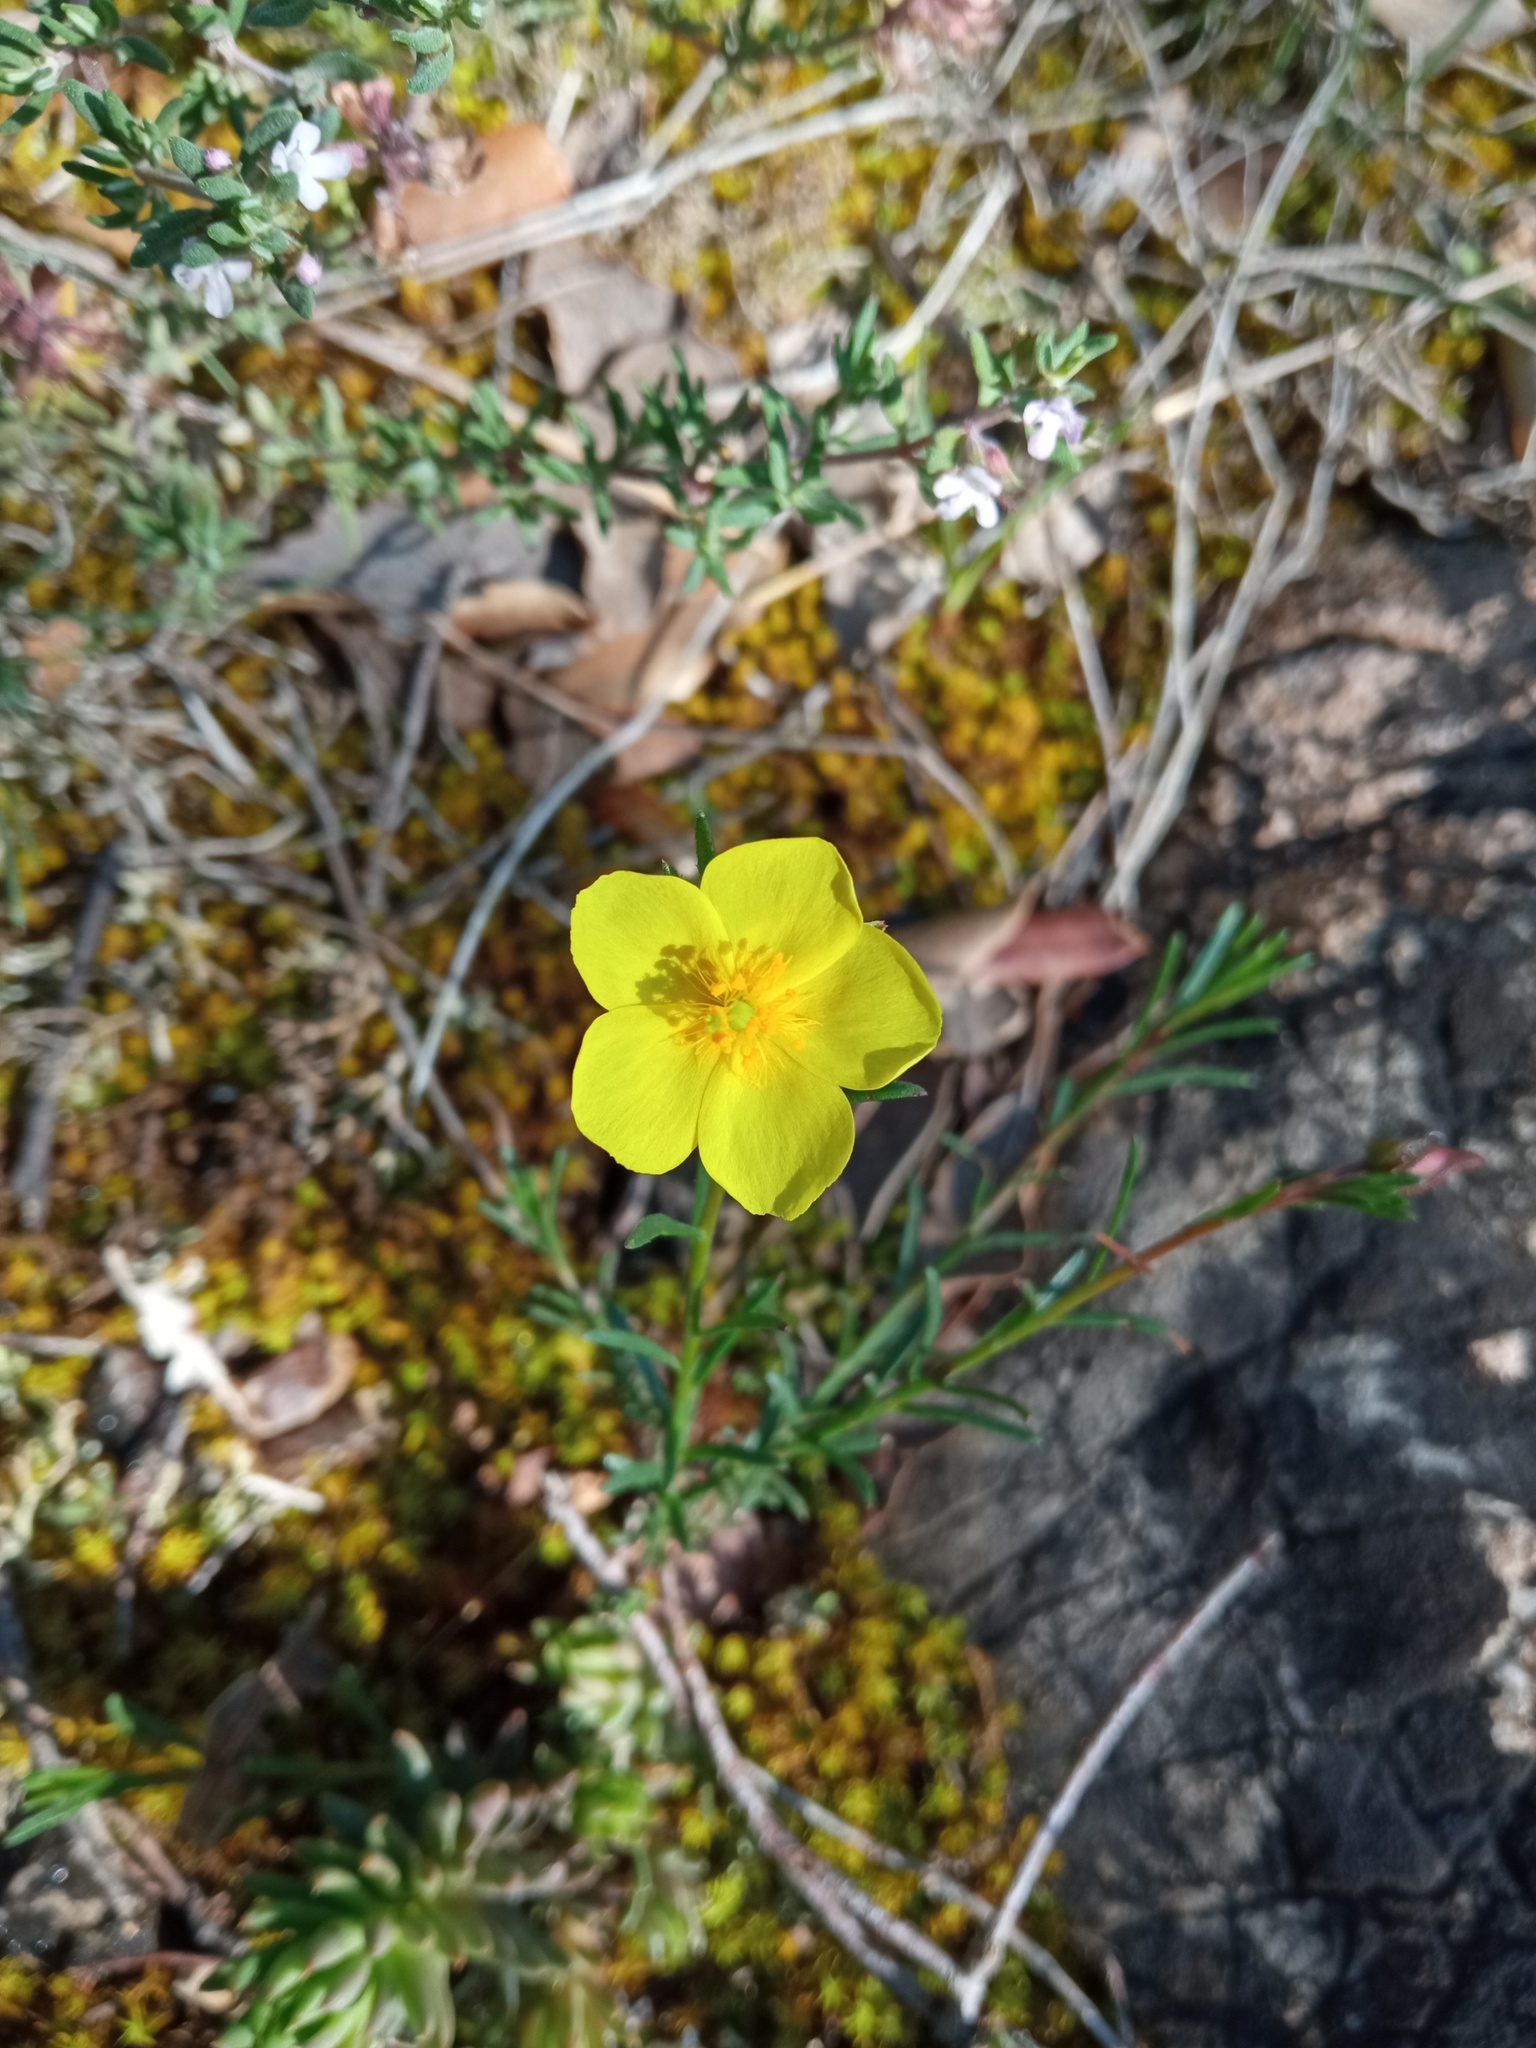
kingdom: Plantae
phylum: Tracheophyta
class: Magnoliopsida
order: Malvales
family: Cistaceae
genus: Fumana
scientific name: Fumana ericifolia
